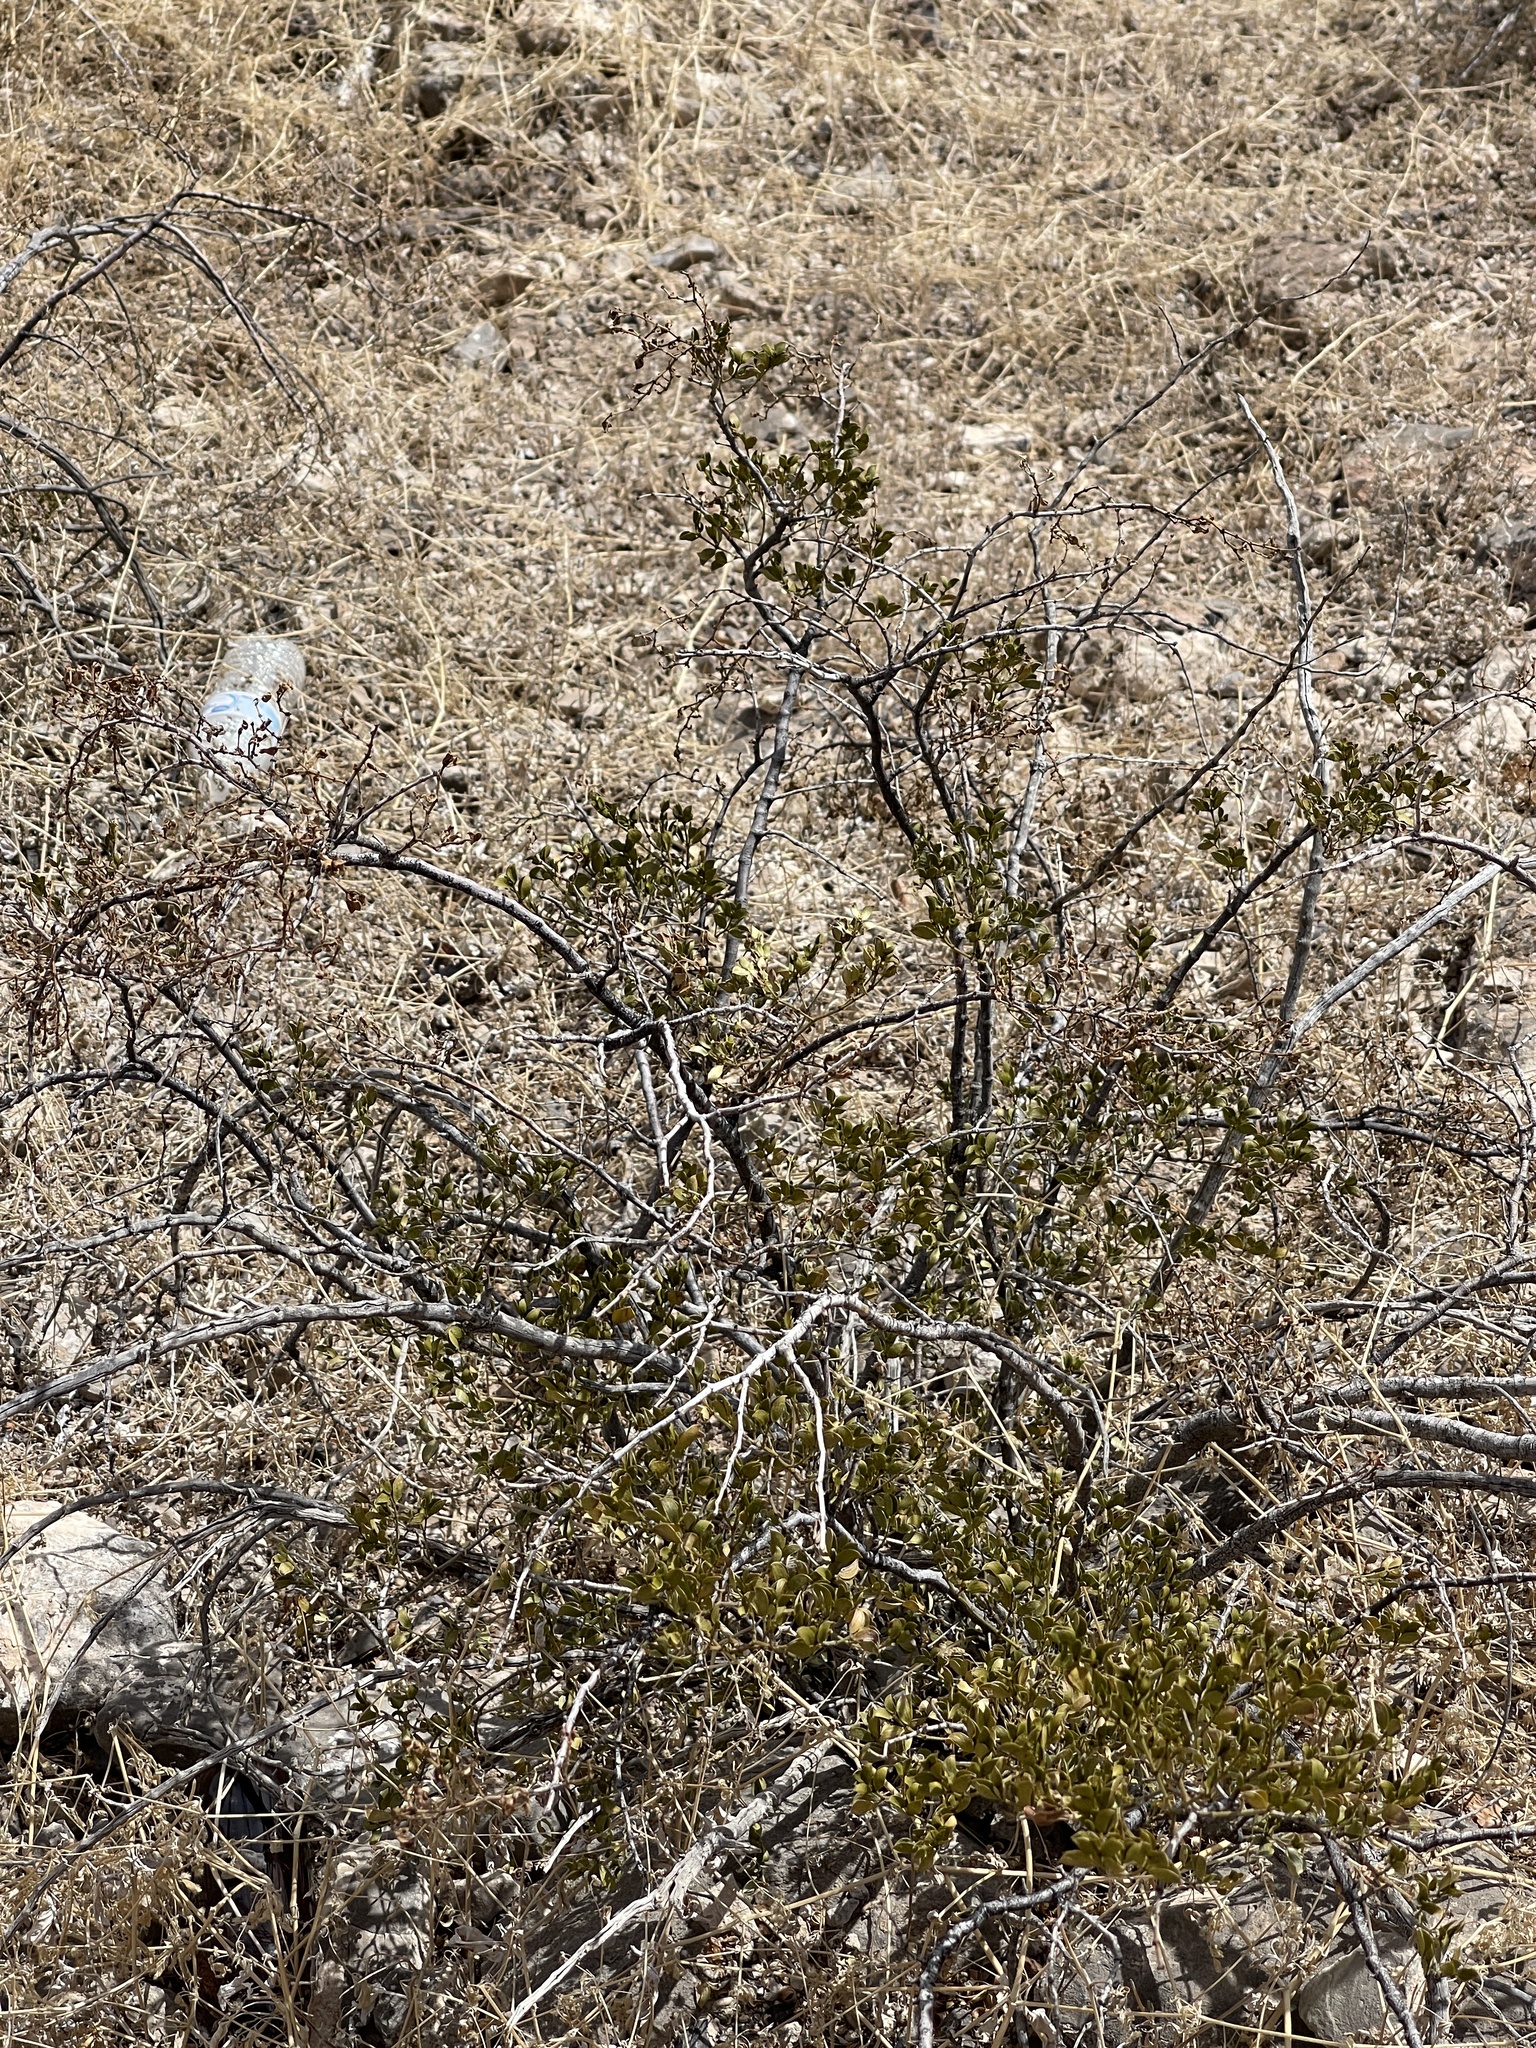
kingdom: Plantae
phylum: Tracheophyta
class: Magnoliopsida
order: Zygophyllales
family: Zygophyllaceae
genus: Larrea
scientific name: Larrea tridentata
